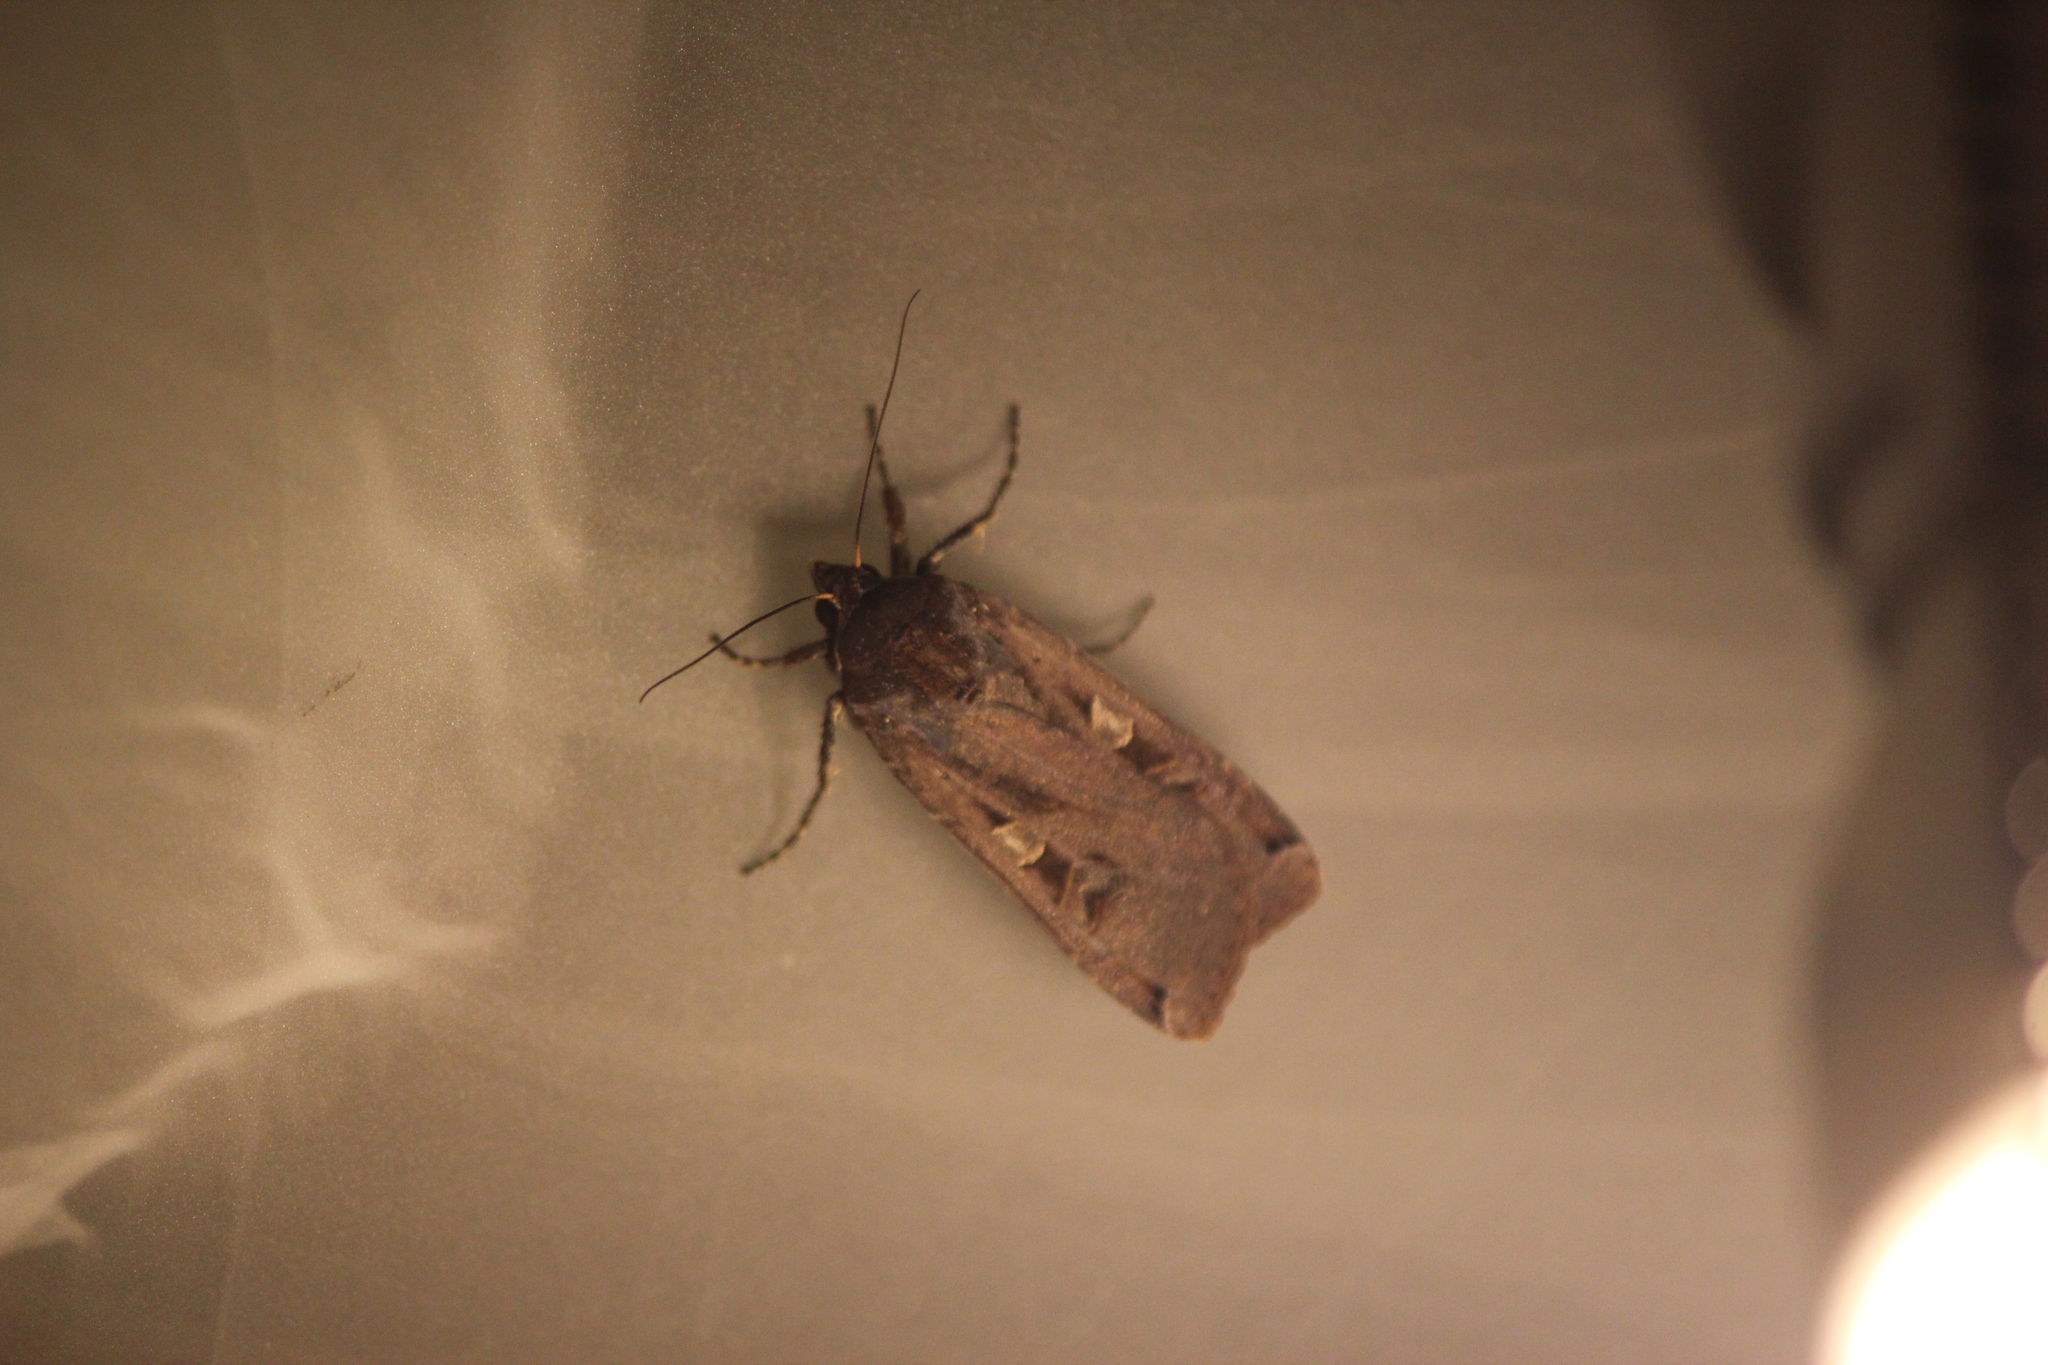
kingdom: Animalia
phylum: Arthropoda
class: Insecta
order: Lepidoptera
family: Noctuidae
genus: Noctua
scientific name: Noctua pronuba
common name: Large yellow underwing
